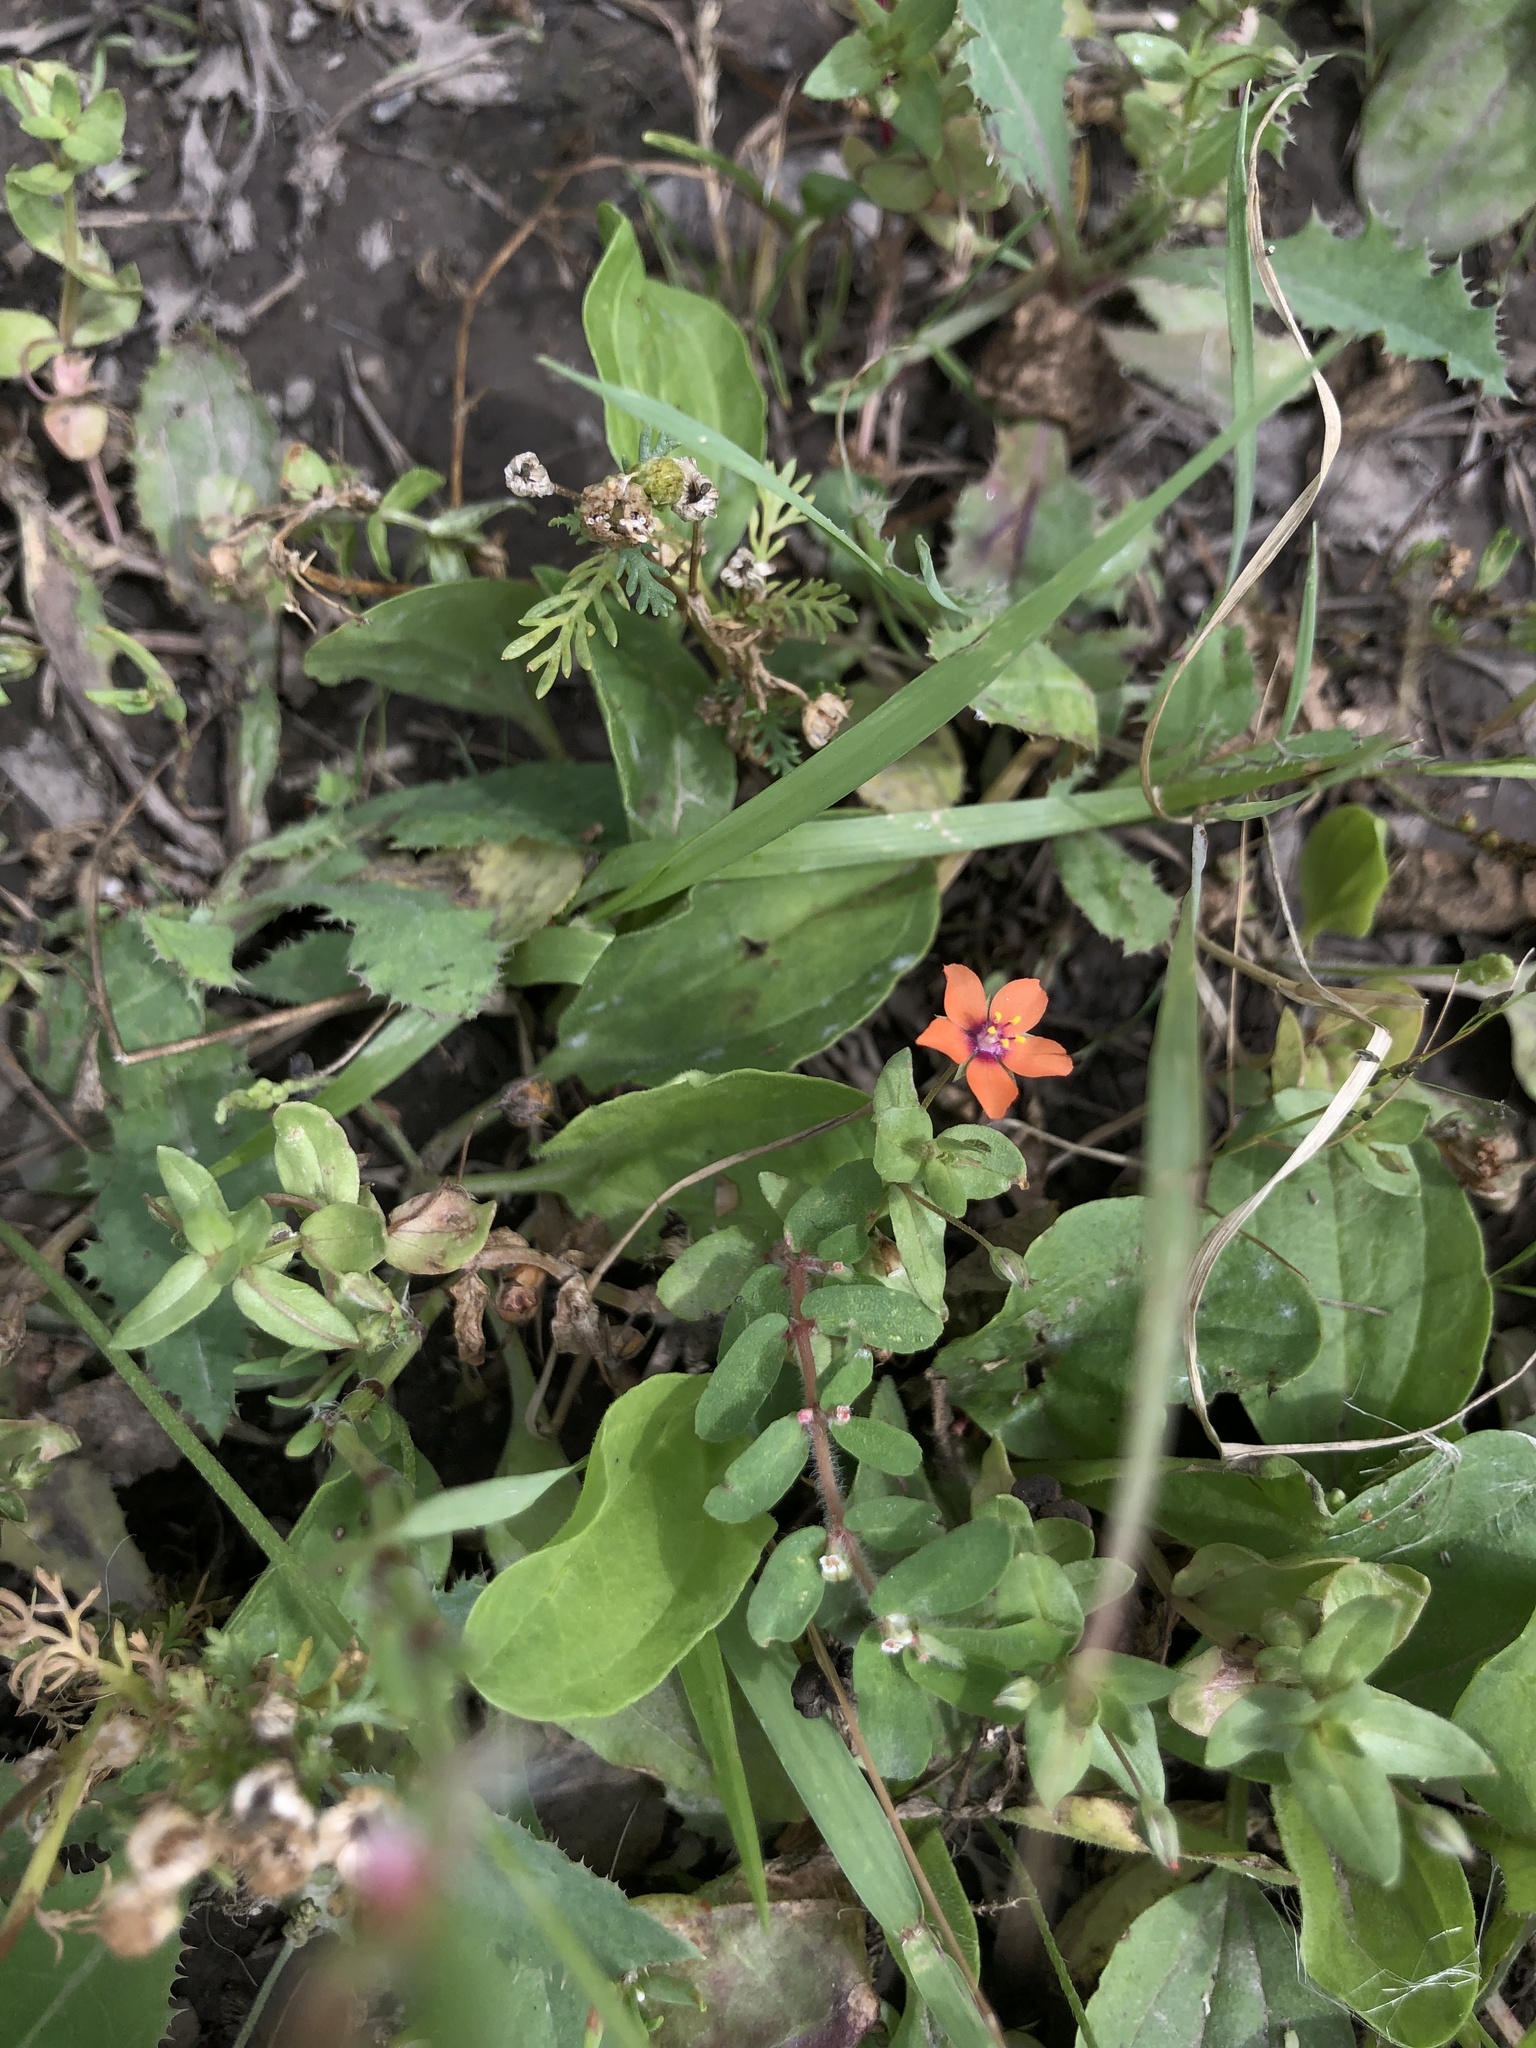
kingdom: Plantae
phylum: Tracheophyta
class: Magnoliopsida
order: Ericales
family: Primulaceae
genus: Lysimachia
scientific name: Lysimachia arvensis
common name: Scarlet pimpernel
